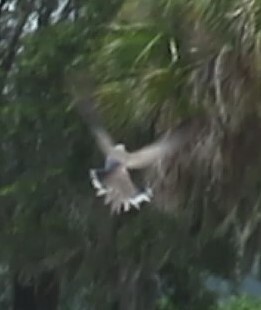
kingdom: Animalia
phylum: Chordata
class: Aves
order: Columbiformes
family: Columbidae
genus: Zenaida
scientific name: Zenaida macroura
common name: Mourning dove
